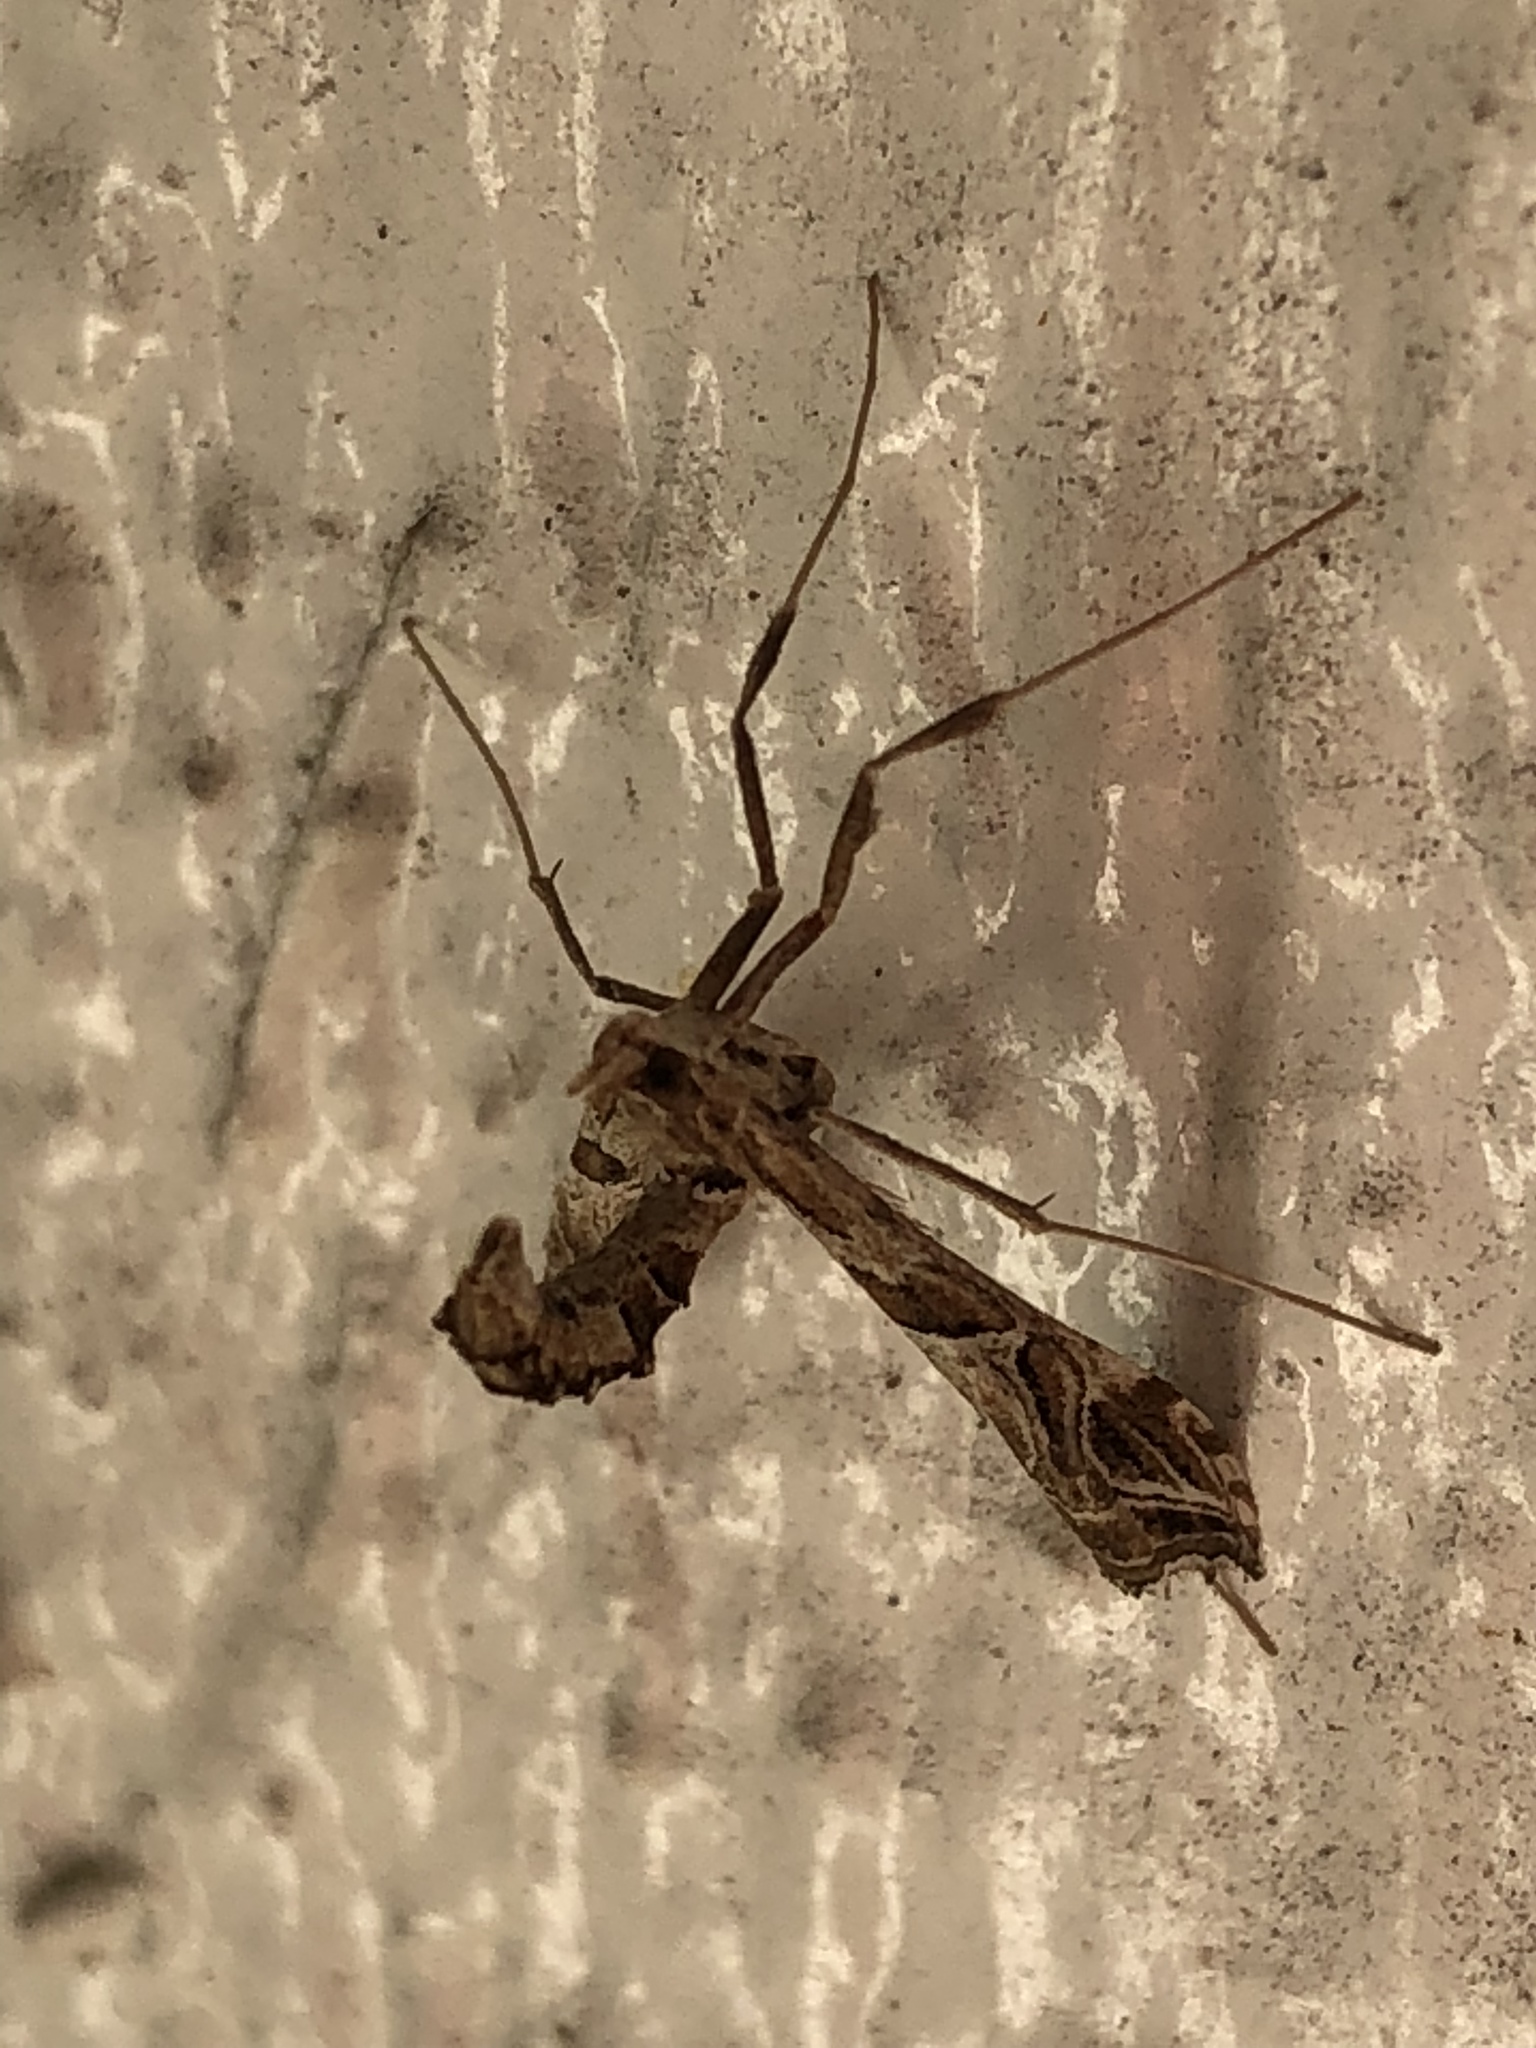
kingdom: Animalia
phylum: Arthropoda
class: Insecta
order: Lepidoptera
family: Crambidae
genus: Lineodes
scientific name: Lineodes interrupta
